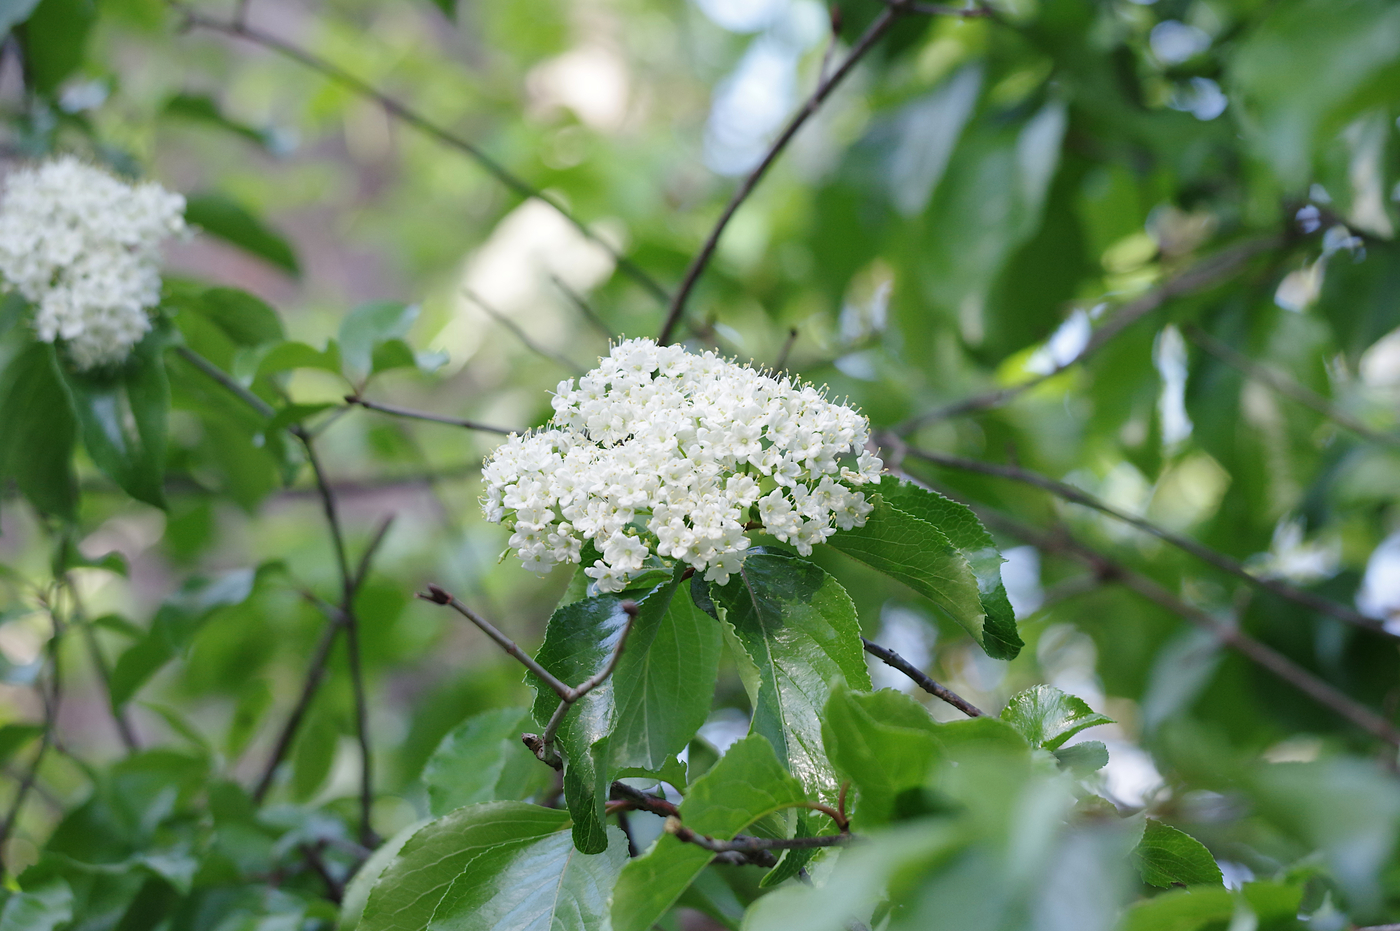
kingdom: Plantae
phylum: Tracheophyta
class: Magnoliopsida
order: Dipsacales
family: Viburnaceae
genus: Viburnum
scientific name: Viburnum rufidulum
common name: Blue haw
